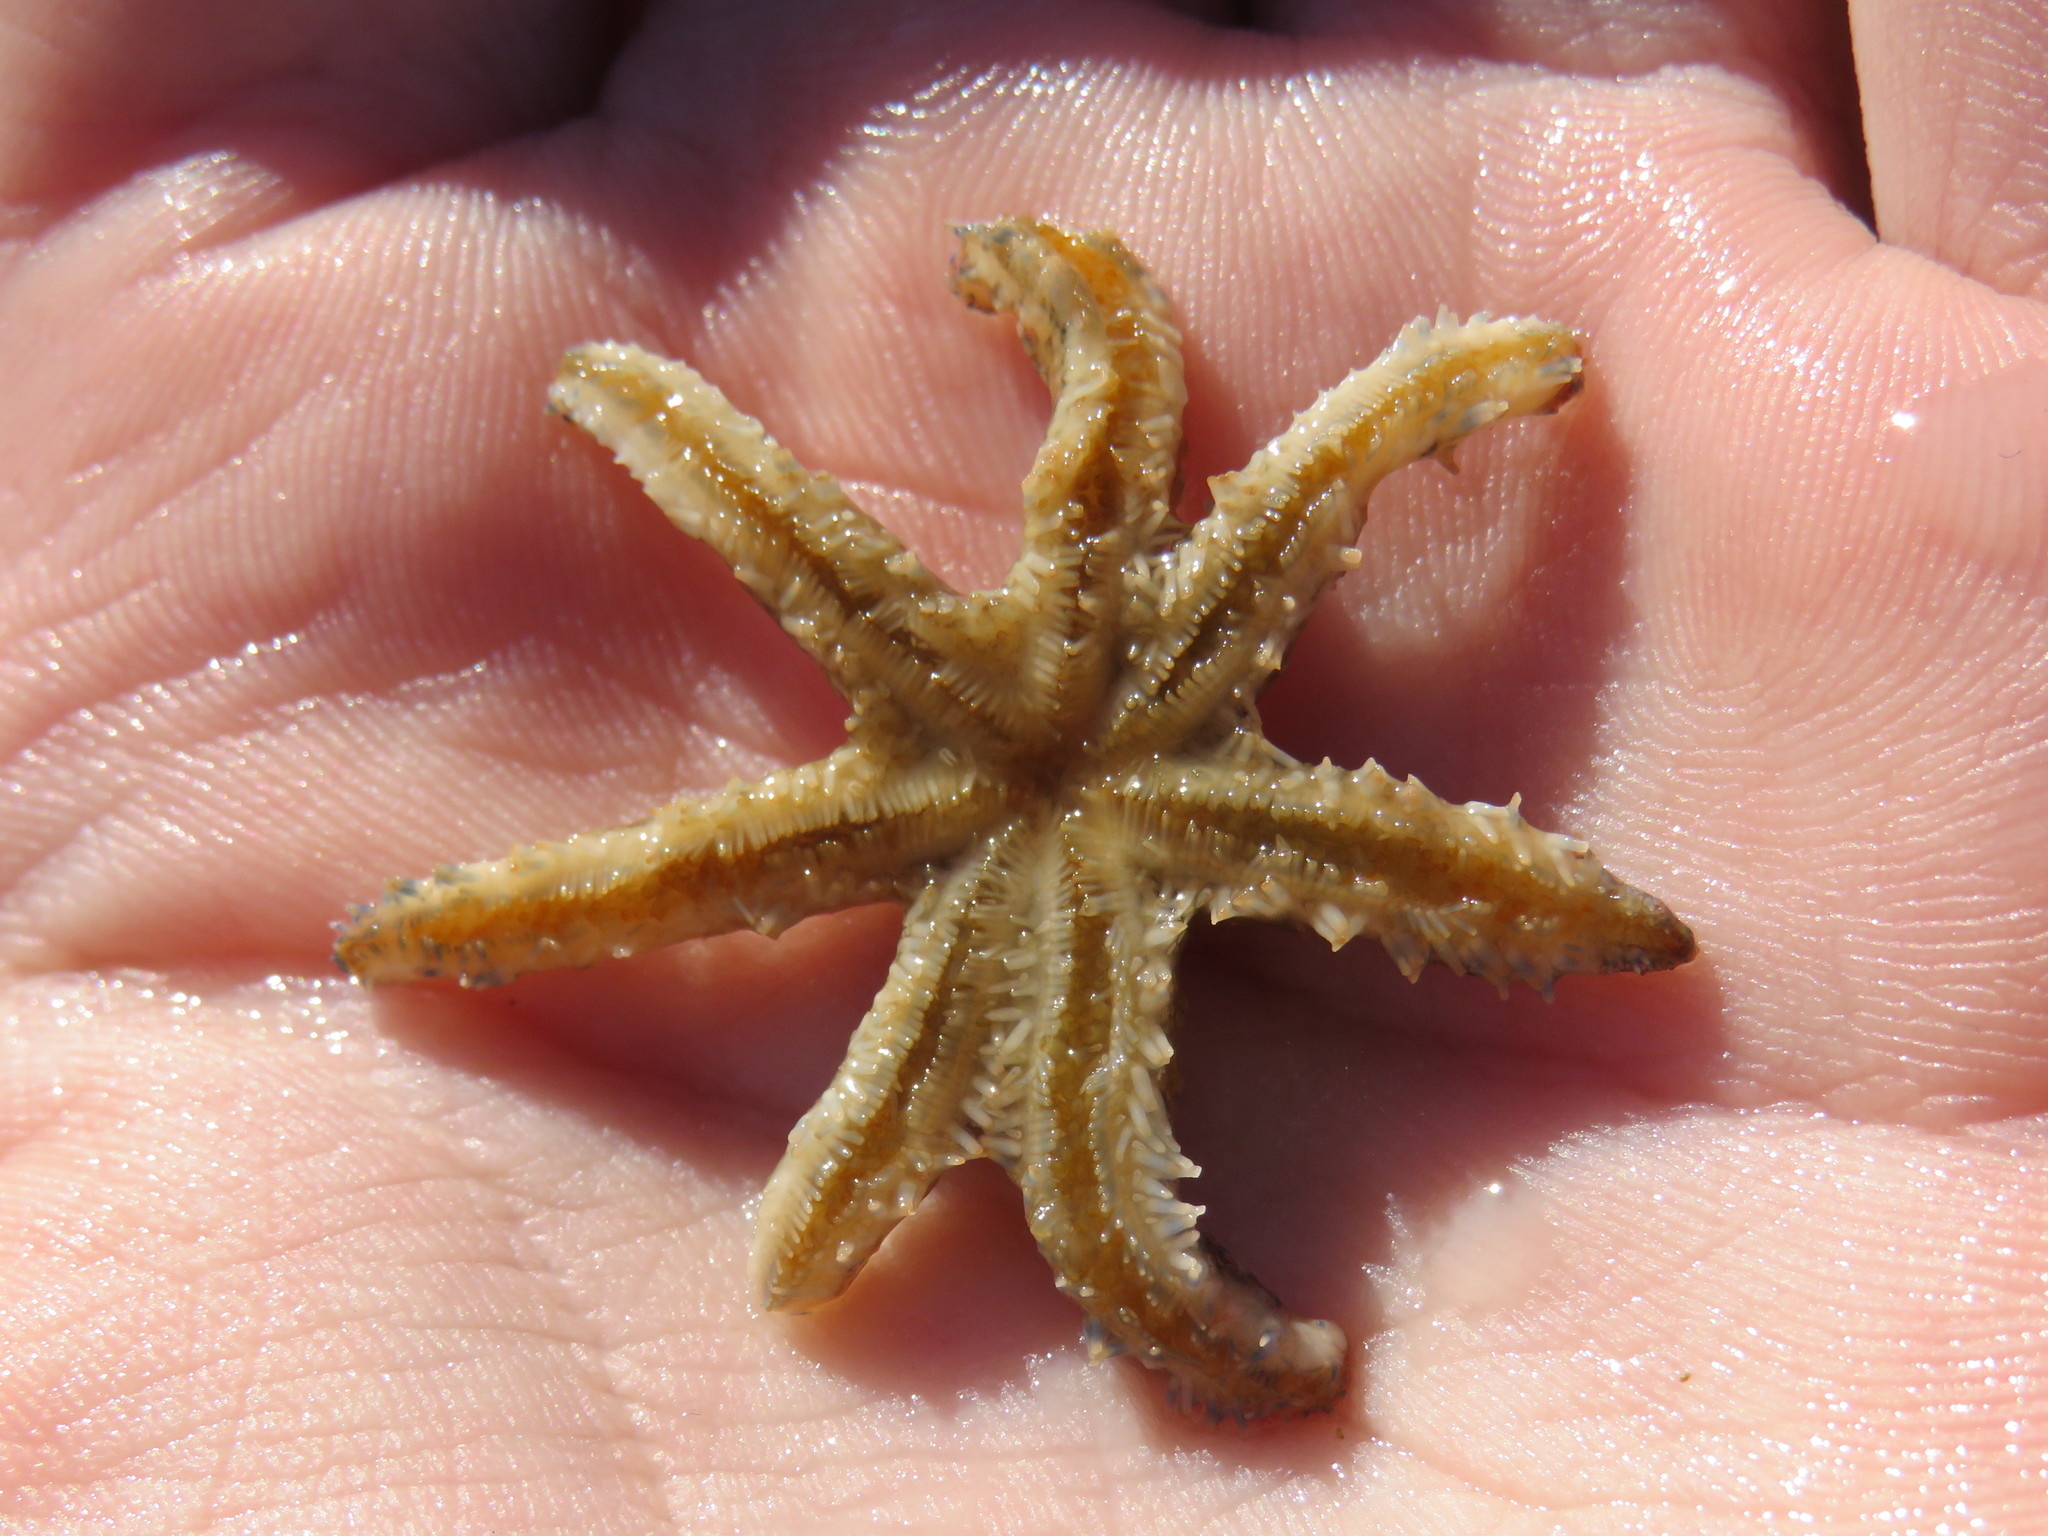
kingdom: Animalia
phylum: Echinodermata
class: Asteroidea
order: Forcipulatida
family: Asteriidae
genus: Marthasterias
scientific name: Marthasterias africana
